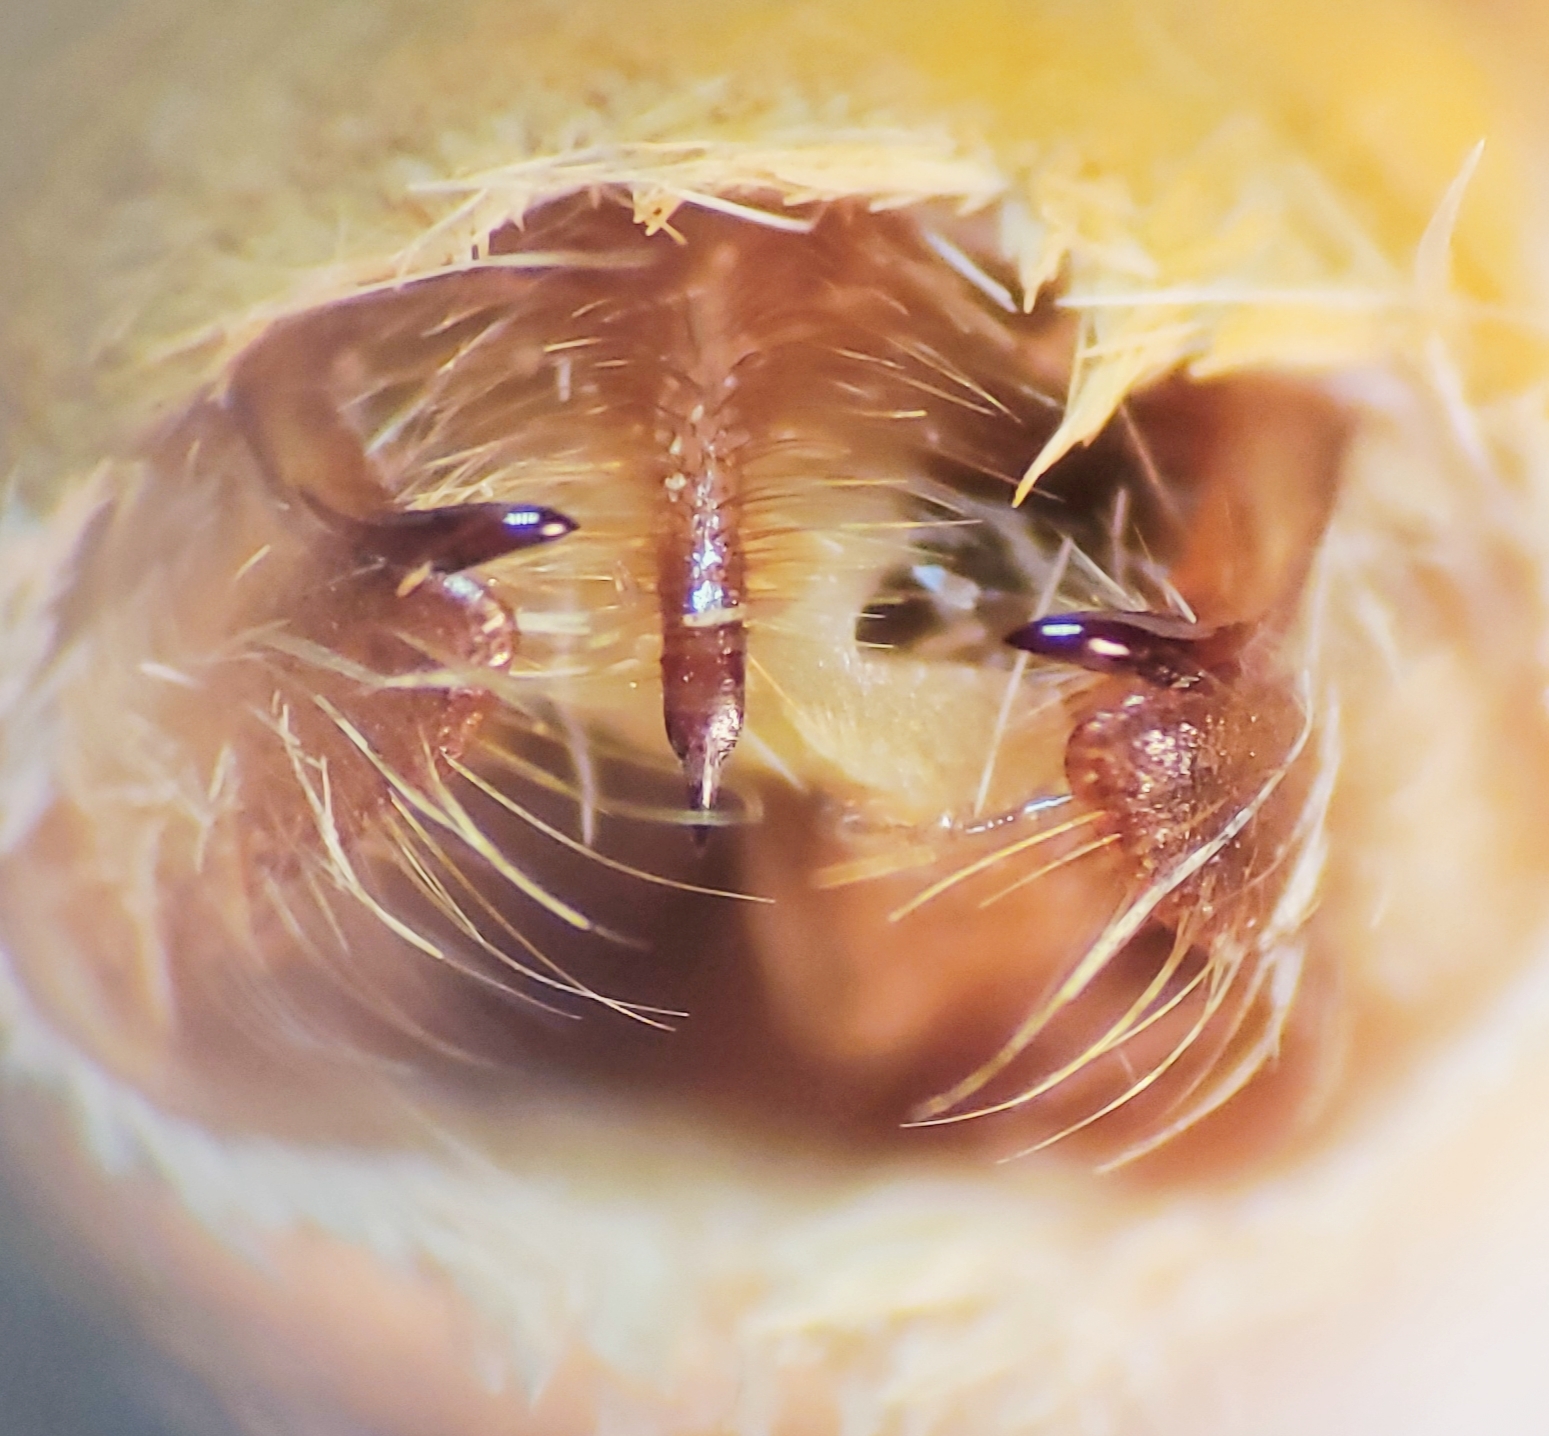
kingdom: Animalia
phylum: Arthropoda
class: Insecta
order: Lepidoptera
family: Erebidae
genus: Halysidota
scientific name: Halysidota tessellaris
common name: Banded tussock moth
